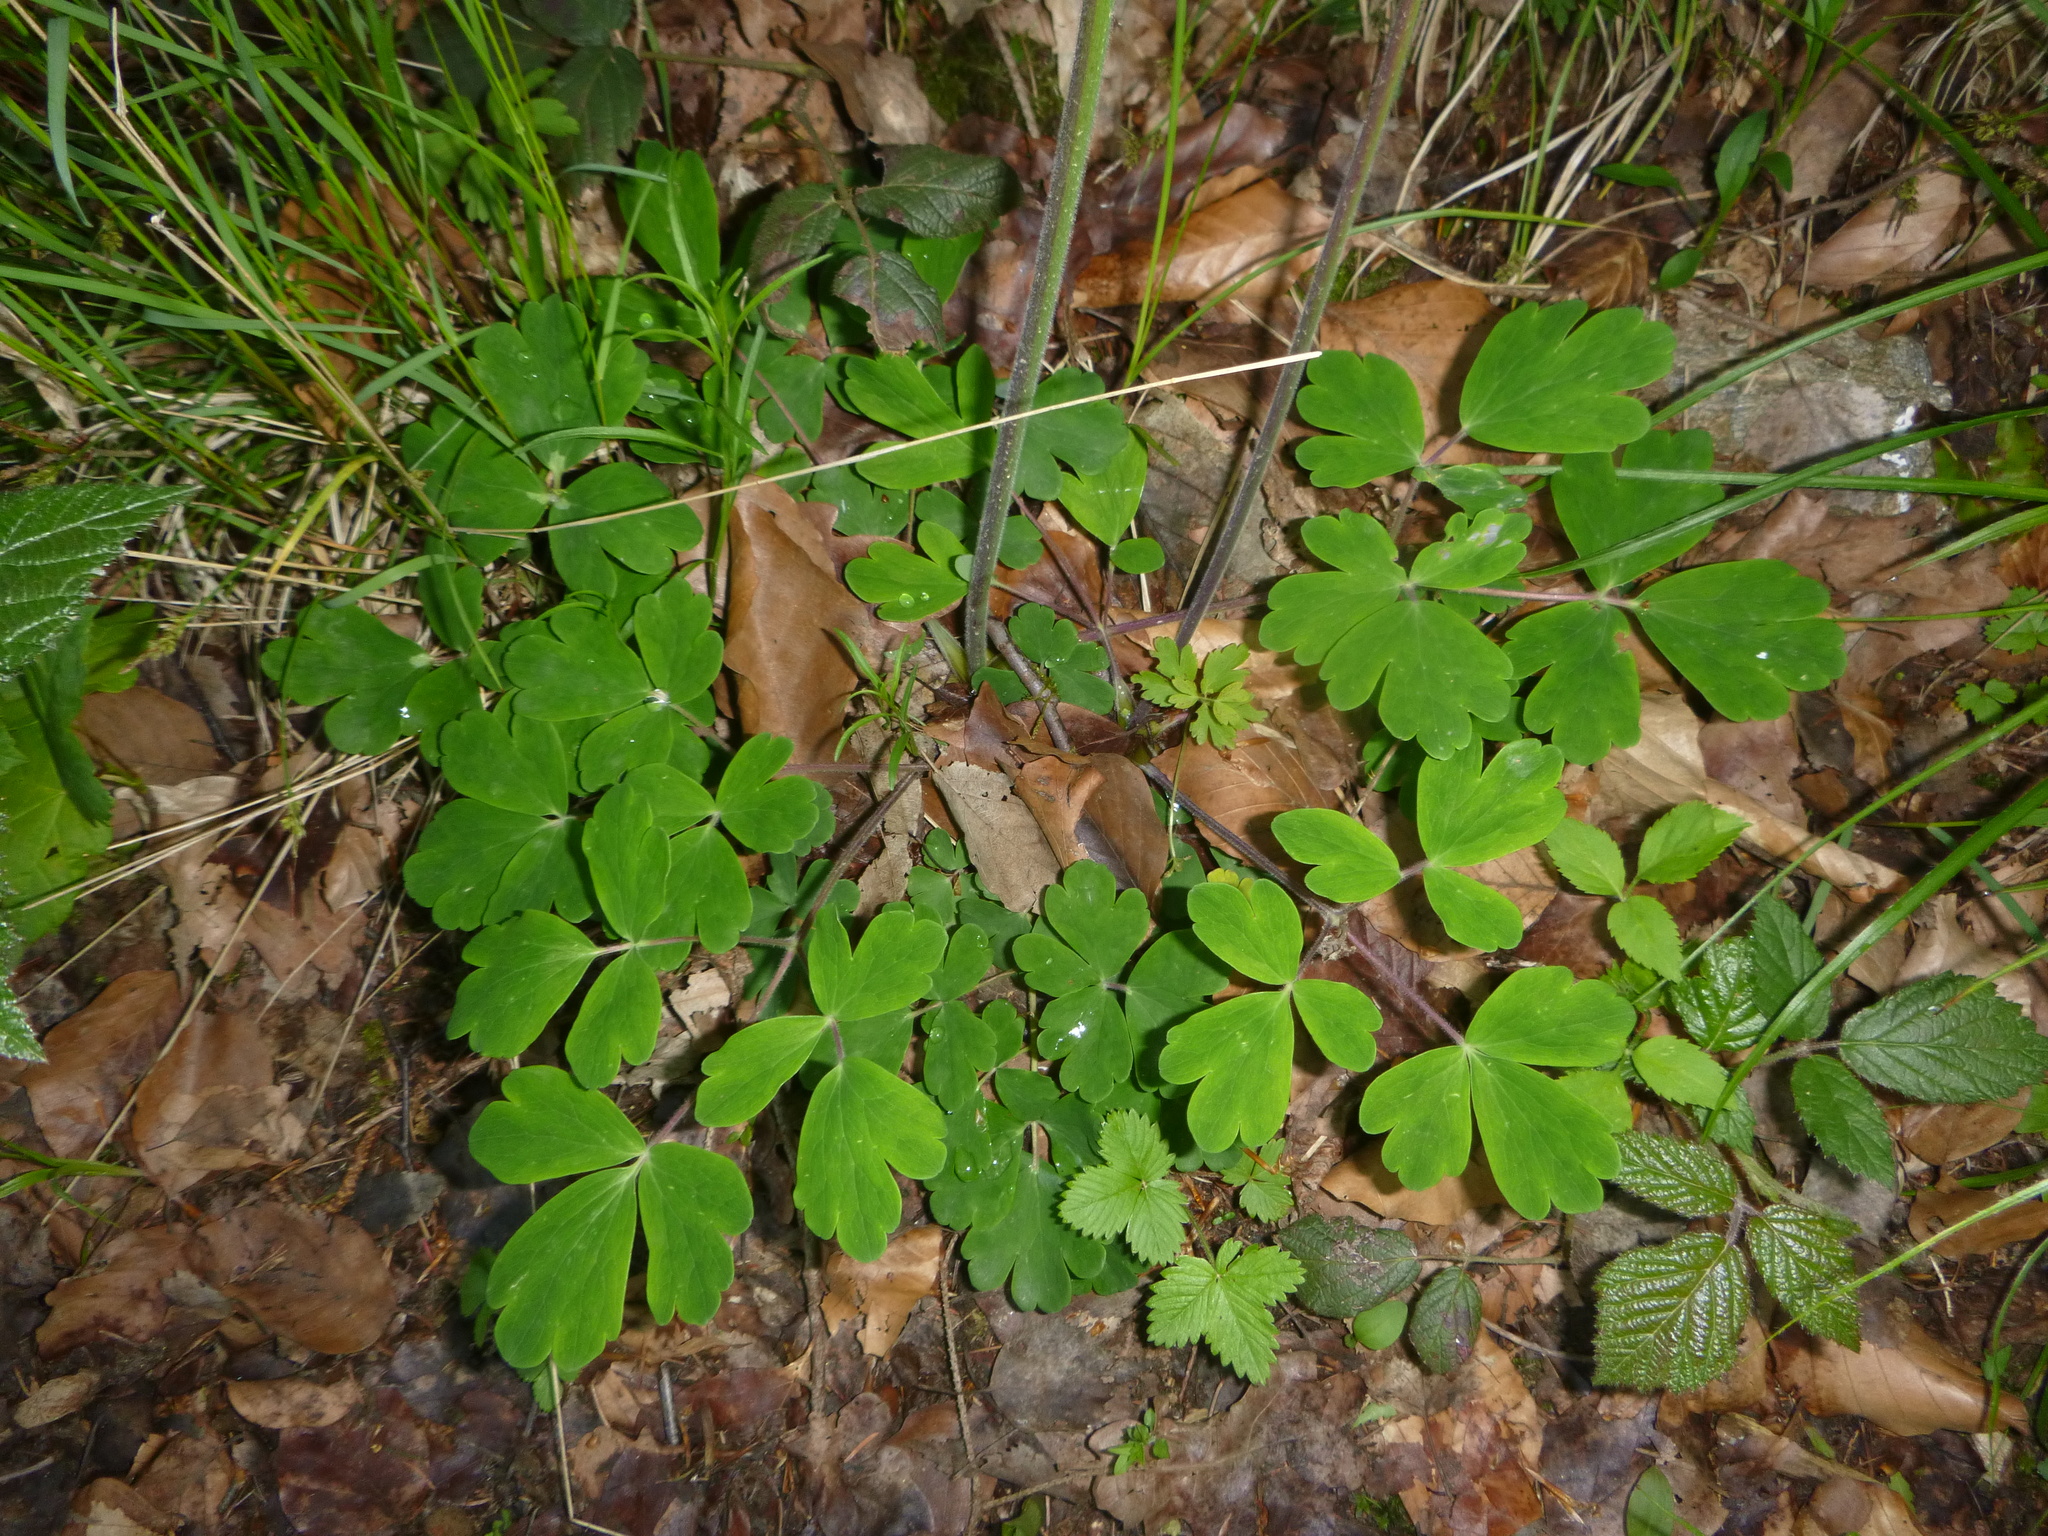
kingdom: Plantae
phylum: Tracheophyta
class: Magnoliopsida
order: Ranunculales
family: Ranunculaceae
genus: Aquilegia
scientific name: Aquilegia vulgaris
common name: Columbine
